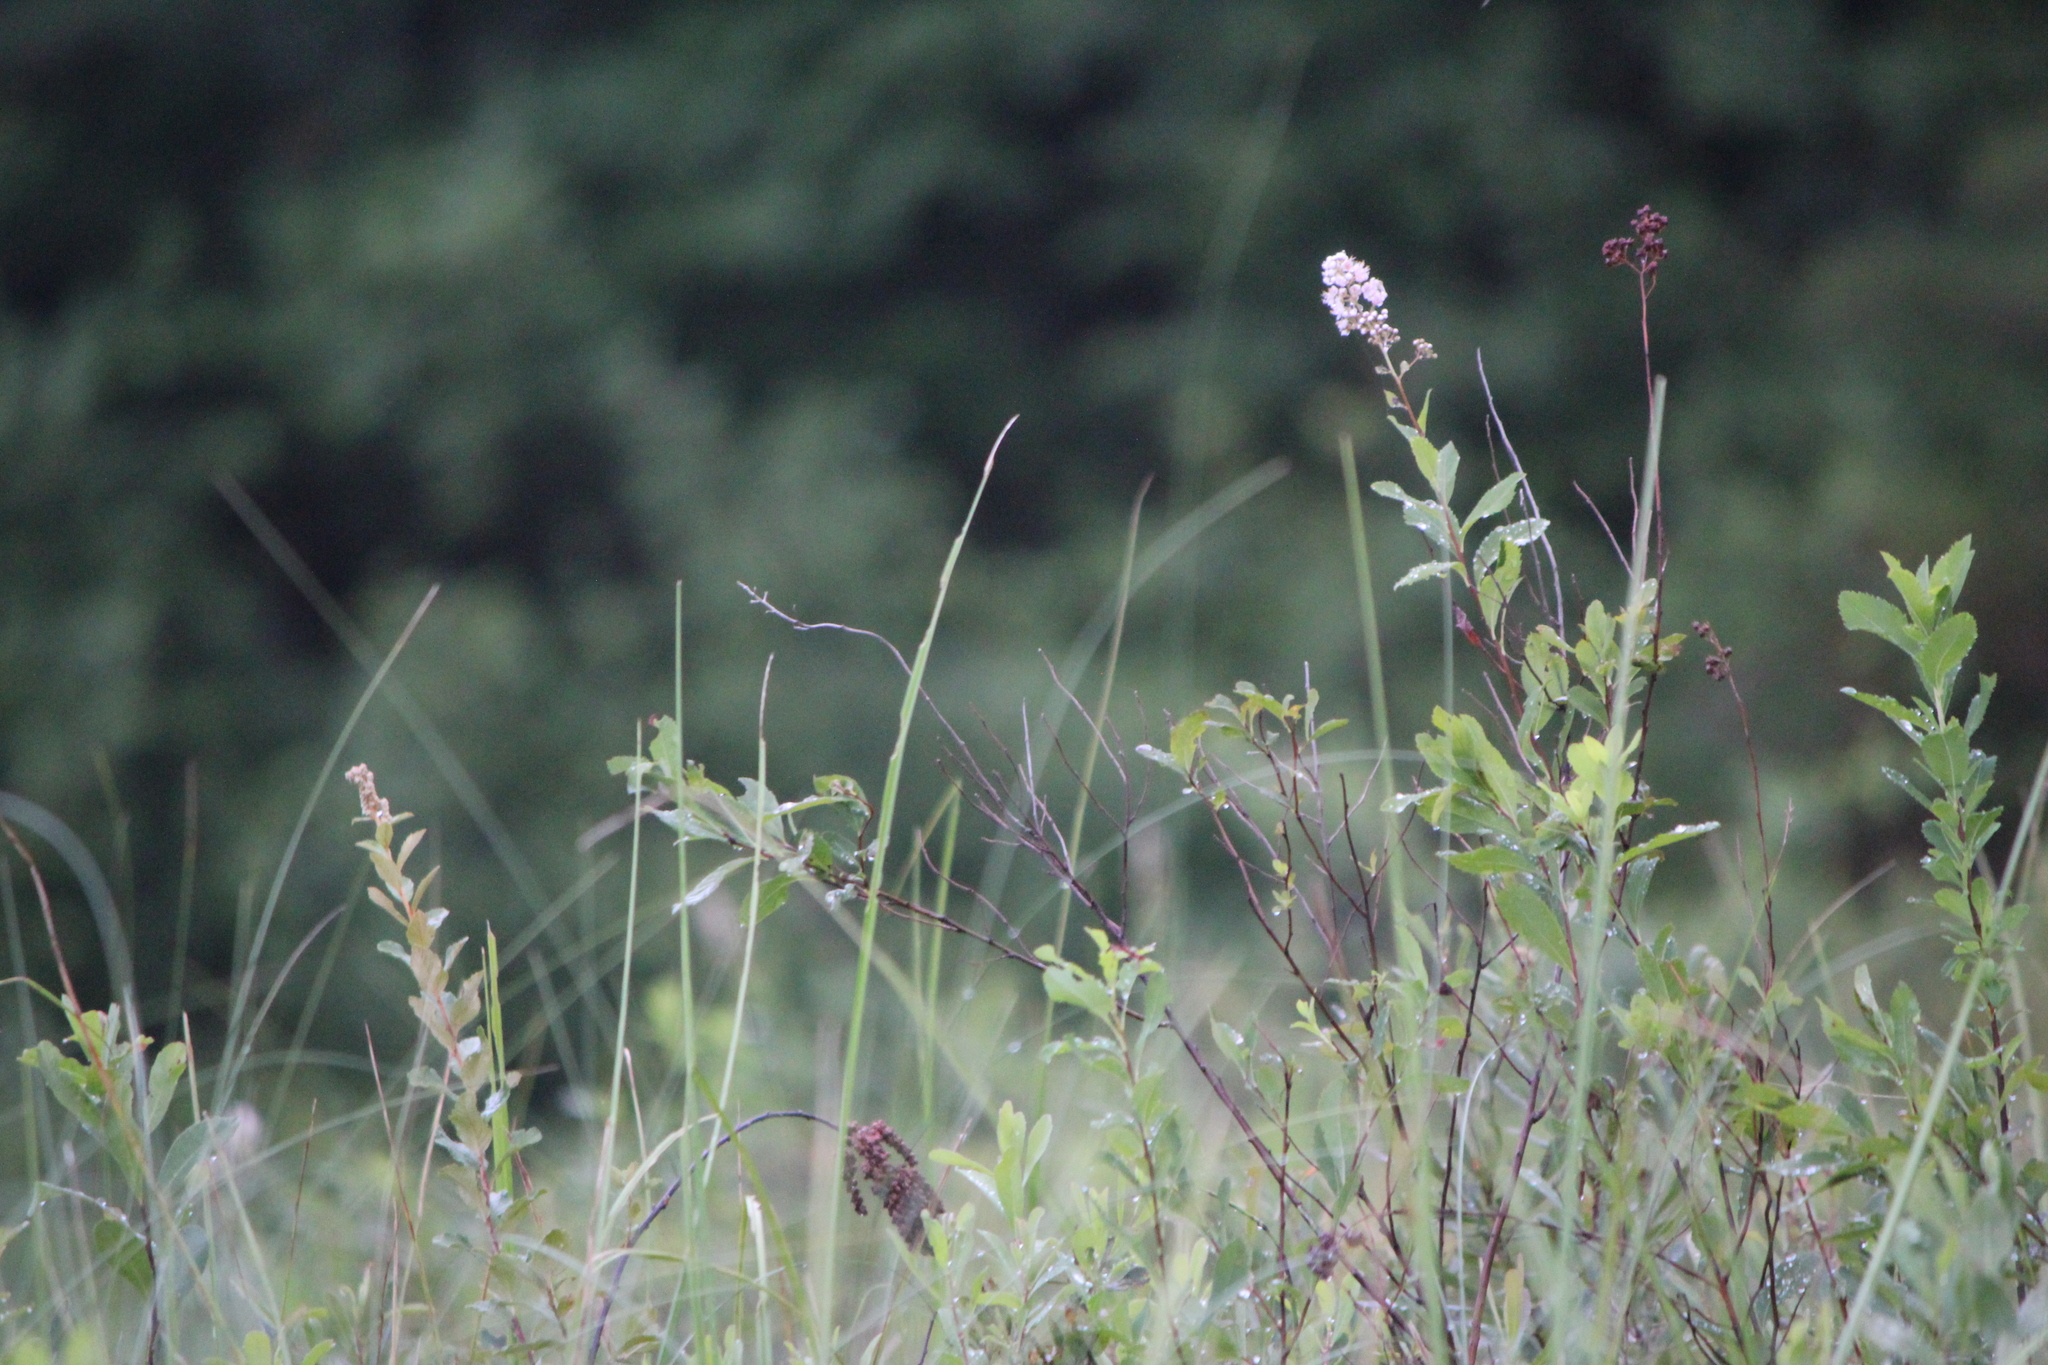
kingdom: Plantae
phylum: Tracheophyta
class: Magnoliopsida
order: Rosales
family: Rosaceae
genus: Spiraea
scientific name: Spiraea alba
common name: Pale bridewort
